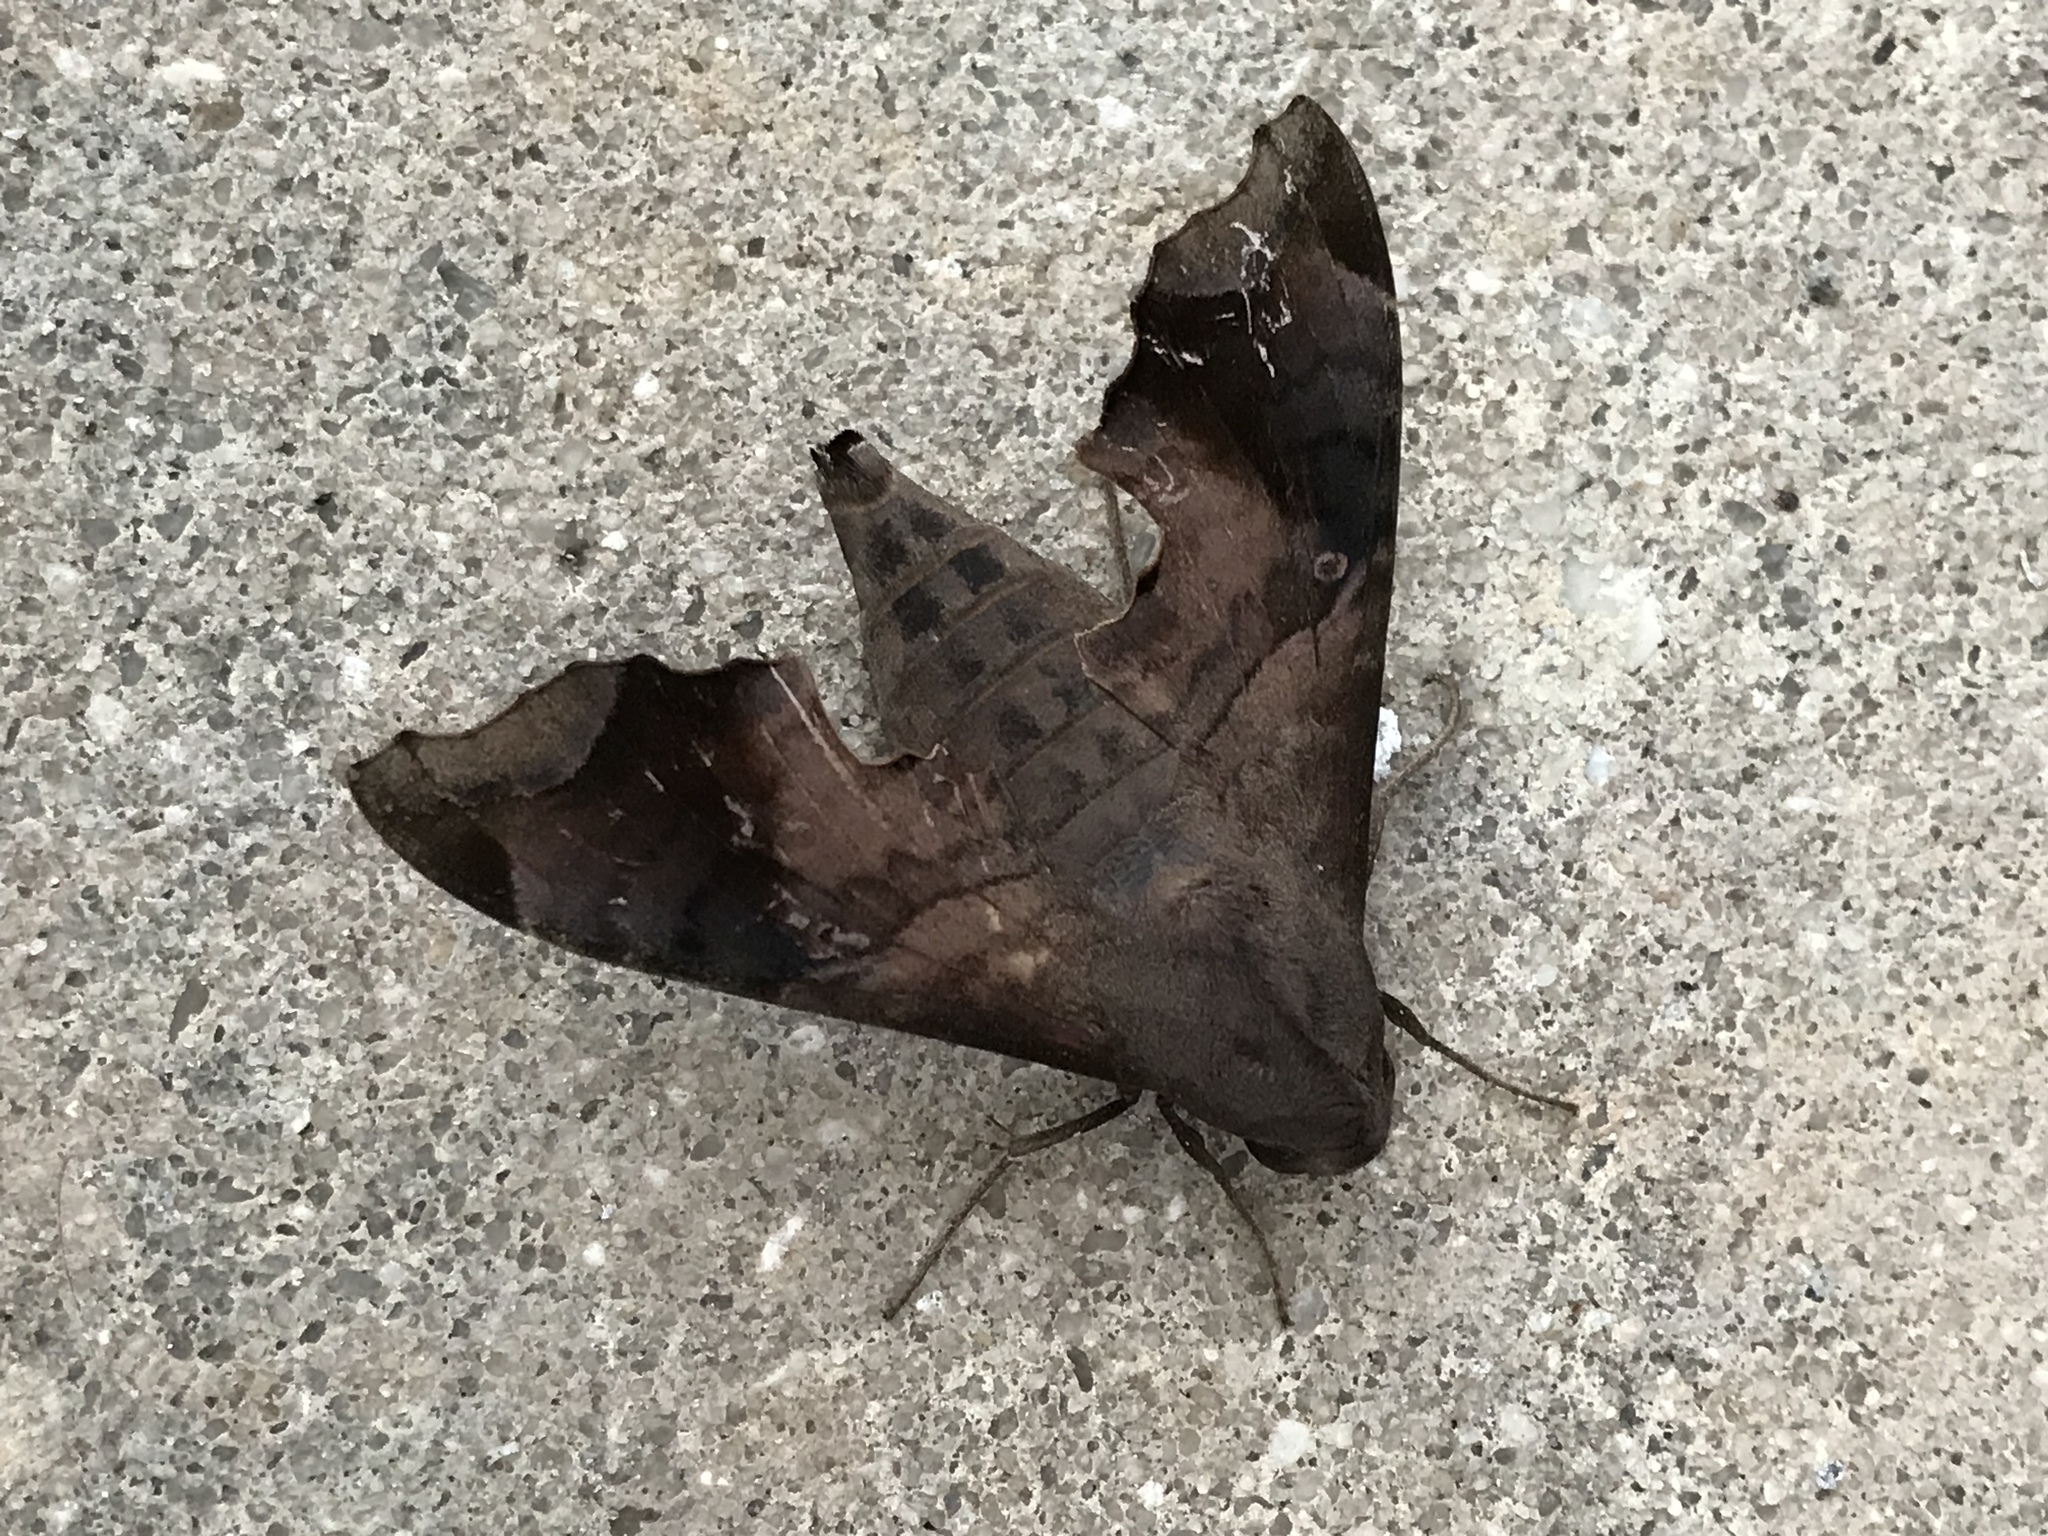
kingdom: Animalia
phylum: Arthropoda
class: Insecta
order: Lepidoptera
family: Sphingidae
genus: Enyo
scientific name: Enyo lugubris
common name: Mournful sphinx
